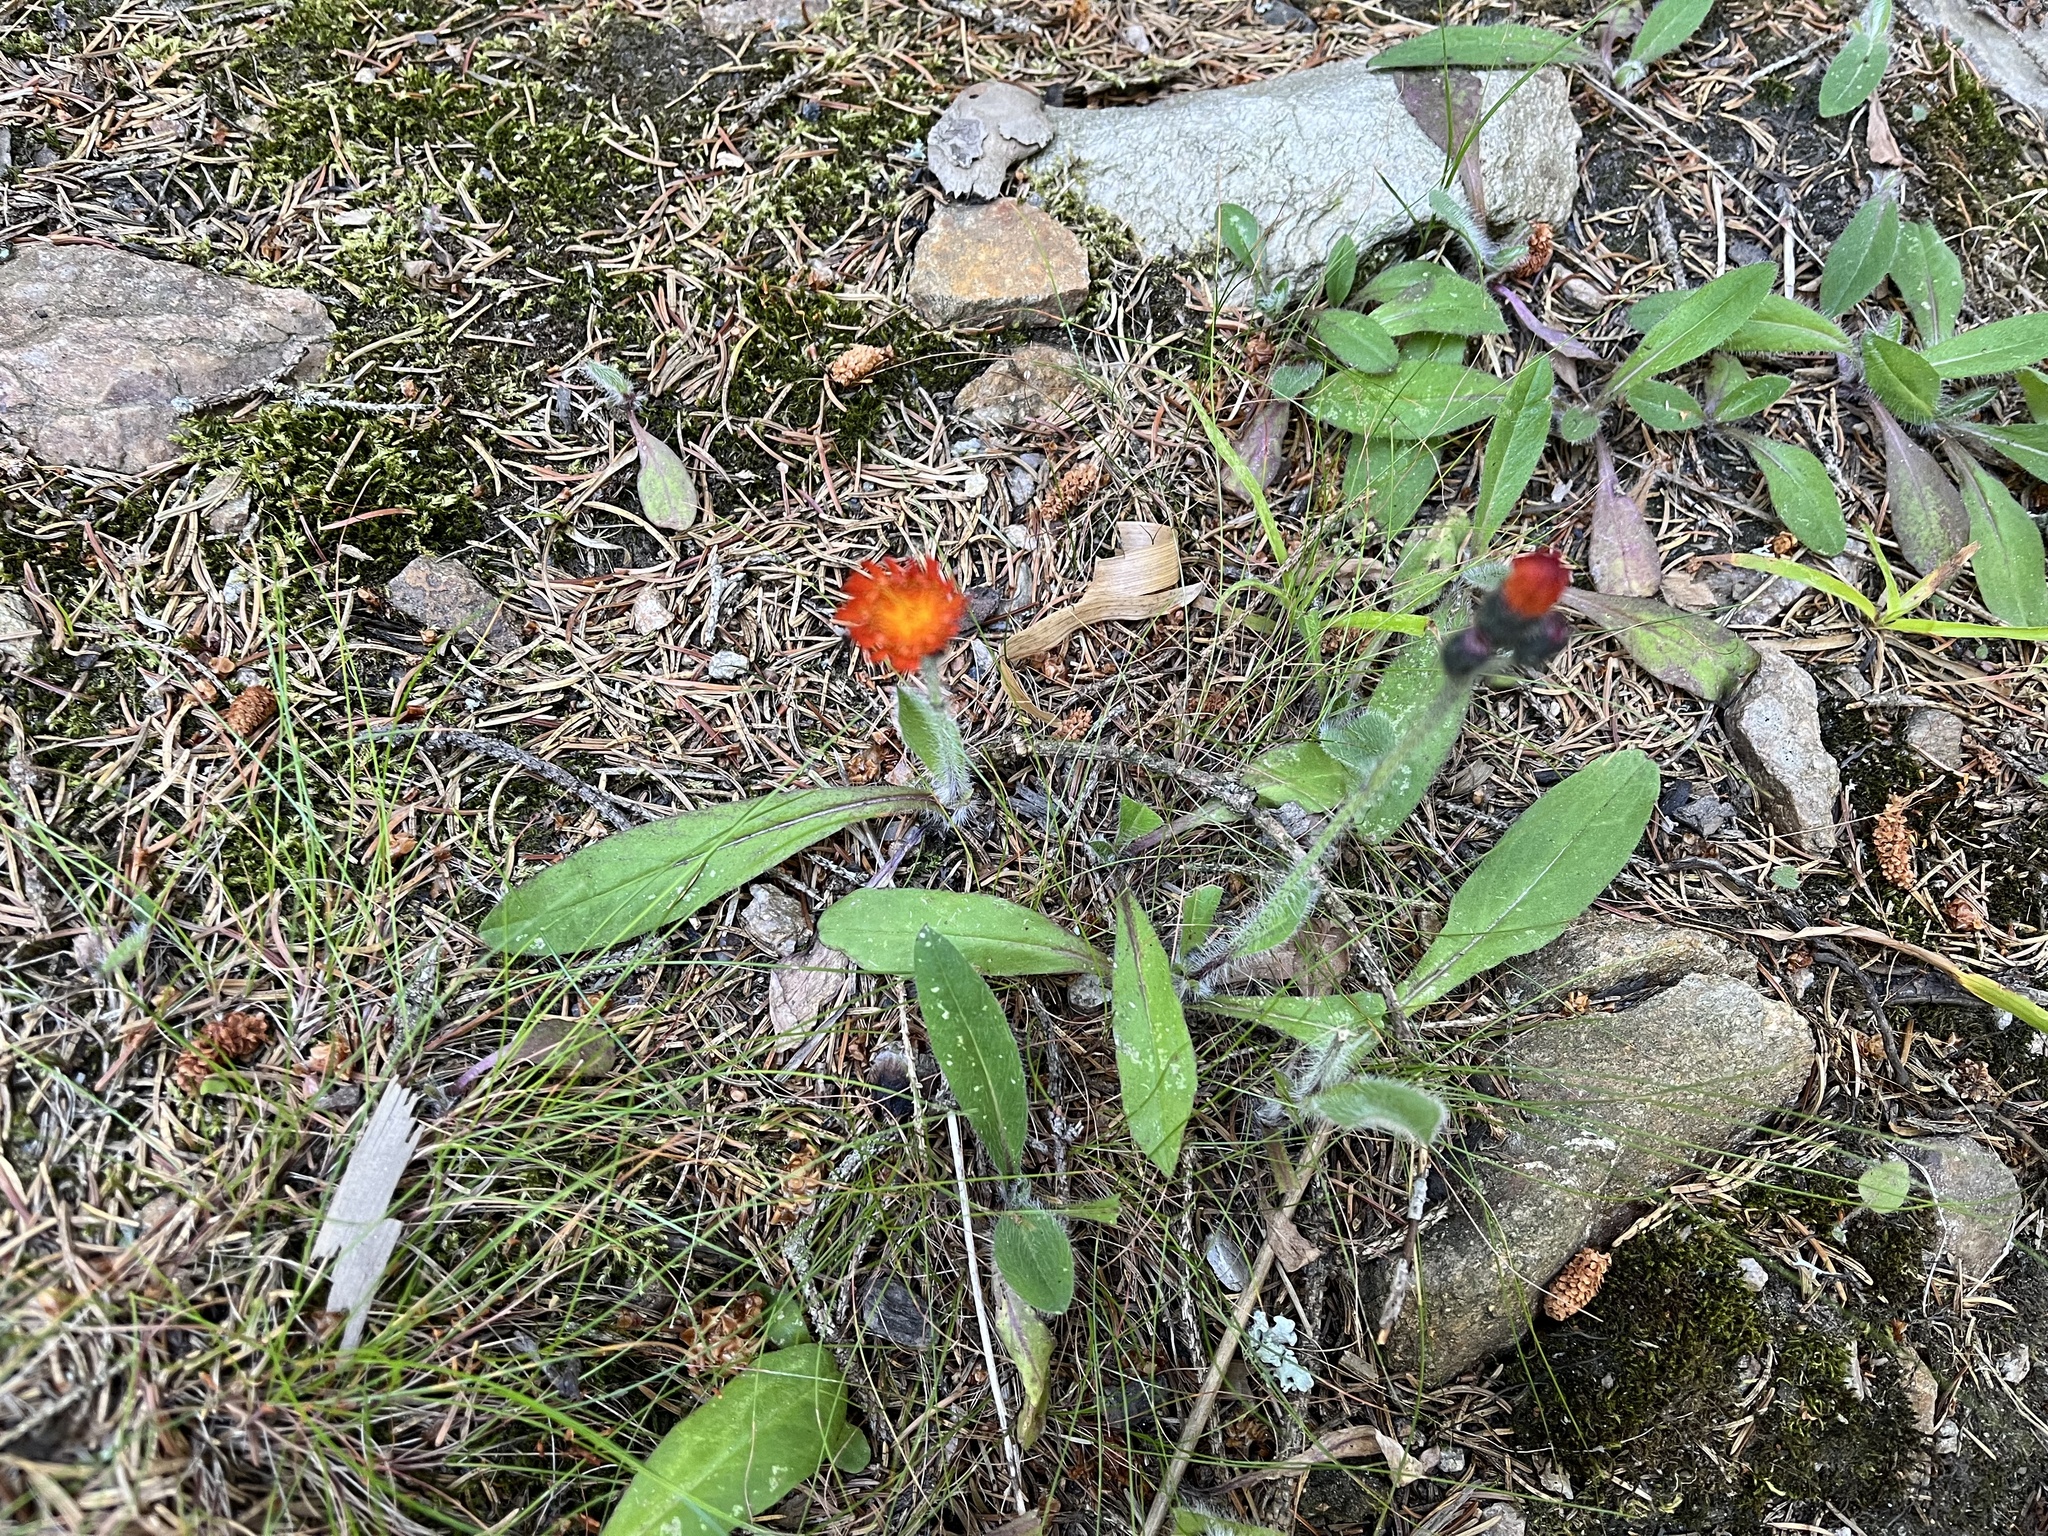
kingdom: Plantae
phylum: Tracheophyta
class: Magnoliopsida
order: Asterales
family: Asteraceae
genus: Pilosella
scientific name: Pilosella aurantiaca
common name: Fox-and-cubs
